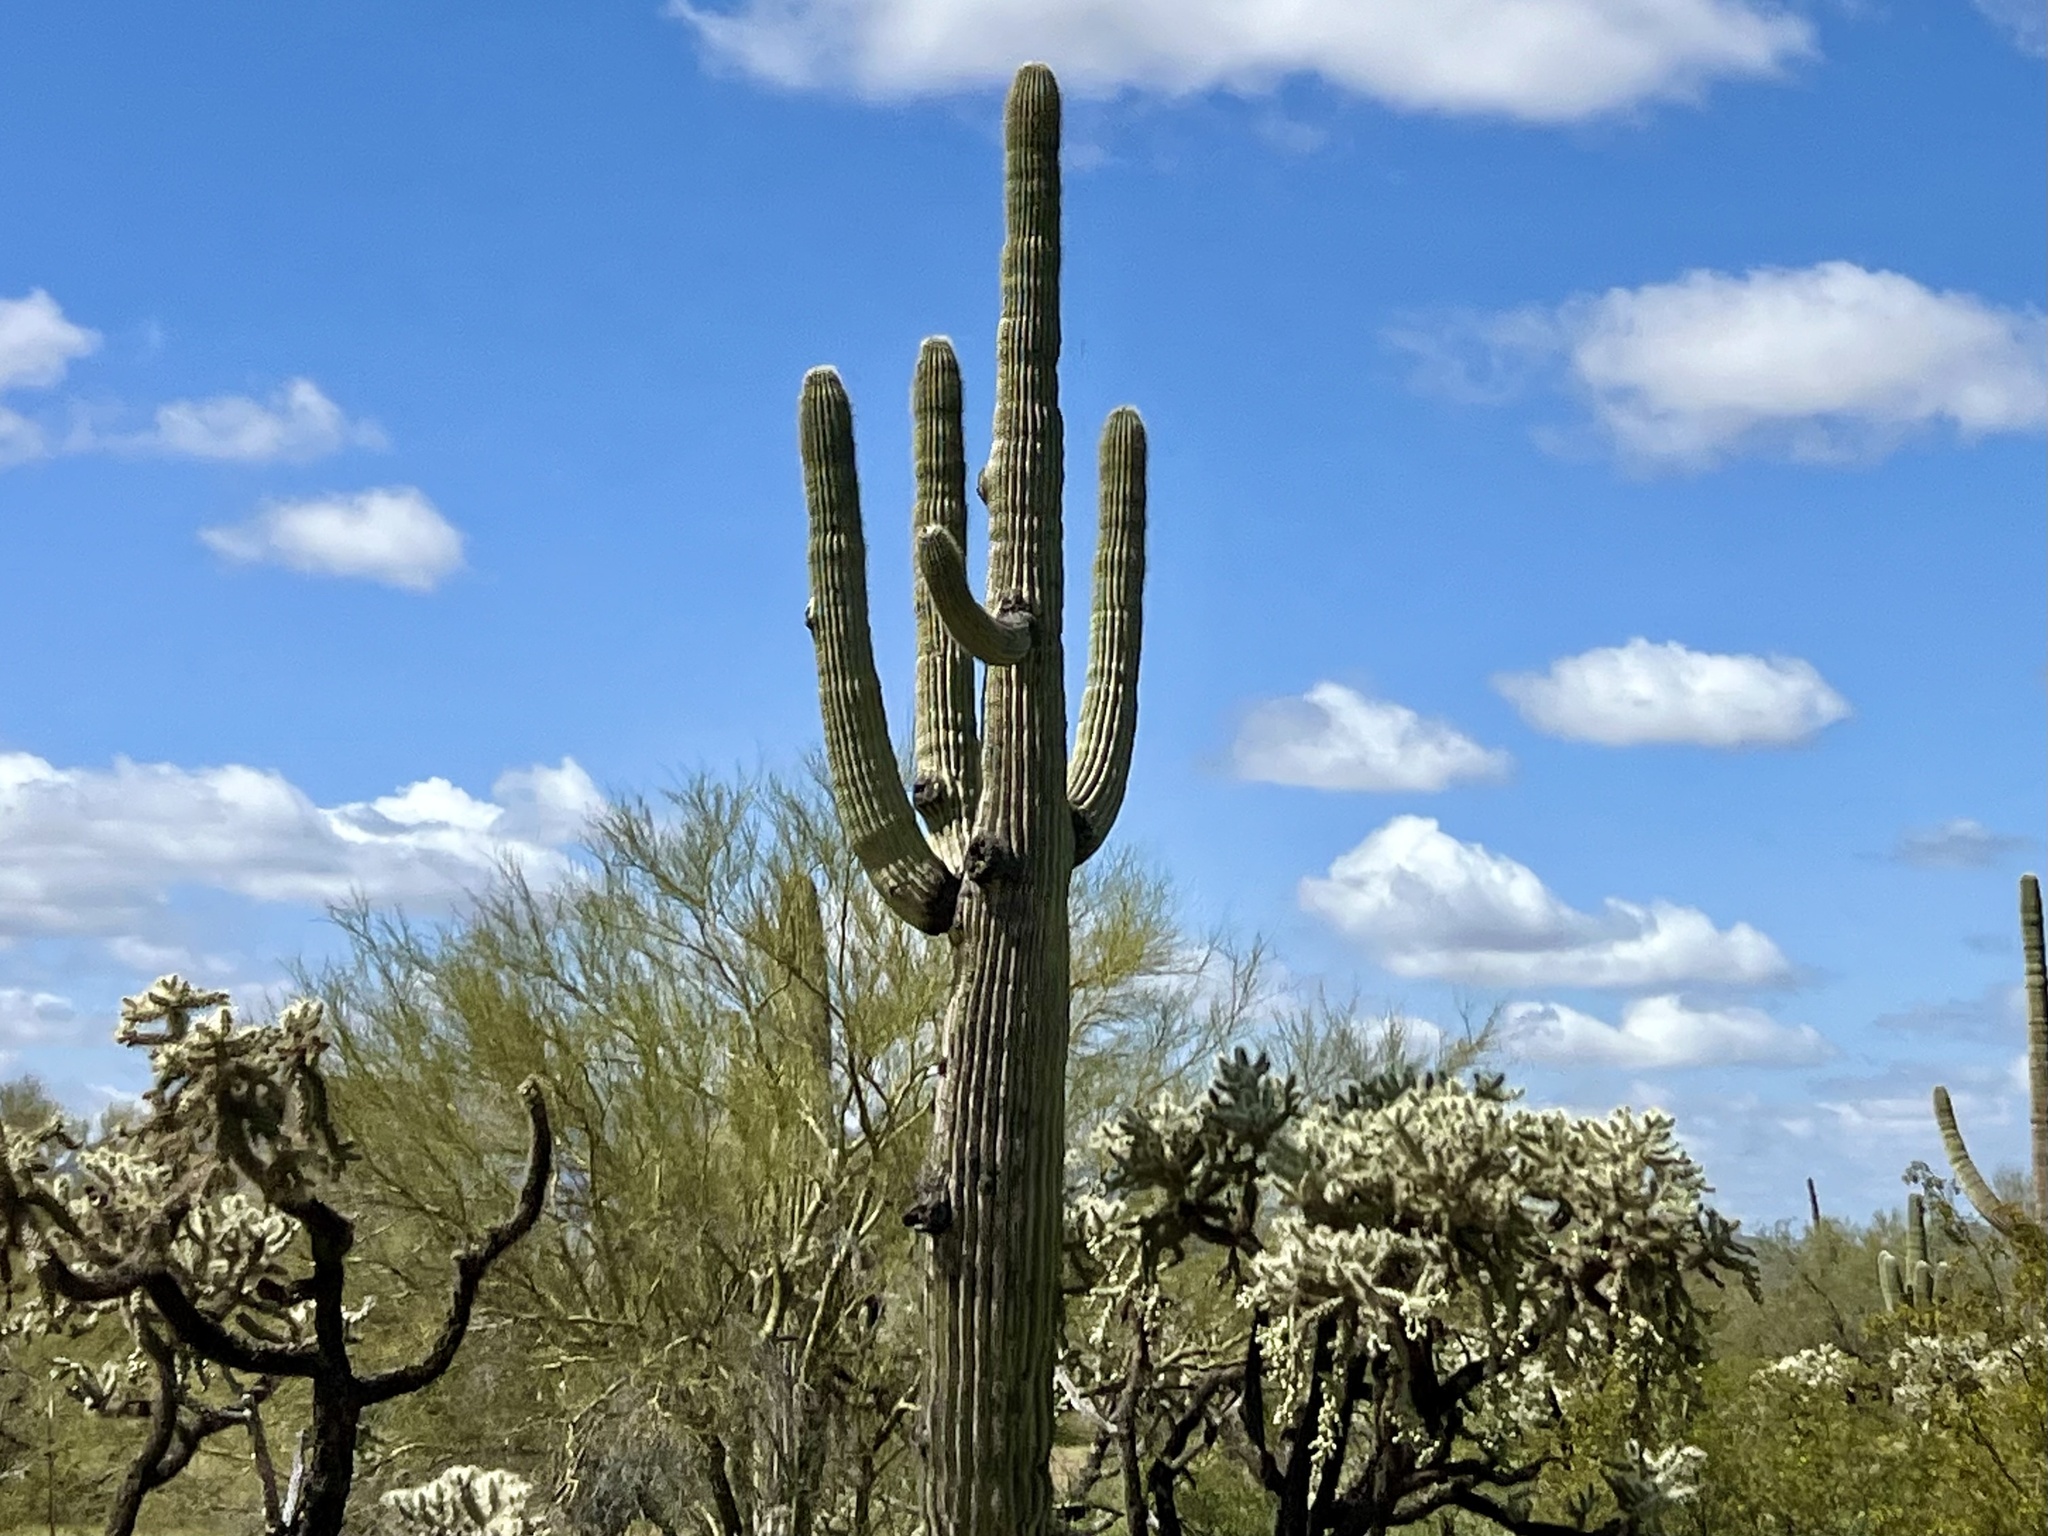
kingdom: Plantae
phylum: Tracheophyta
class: Magnoliopsida
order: Caryophyllales
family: Cactaceae
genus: Carnegiea
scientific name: Carnegiea gigantea
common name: Saguaro
